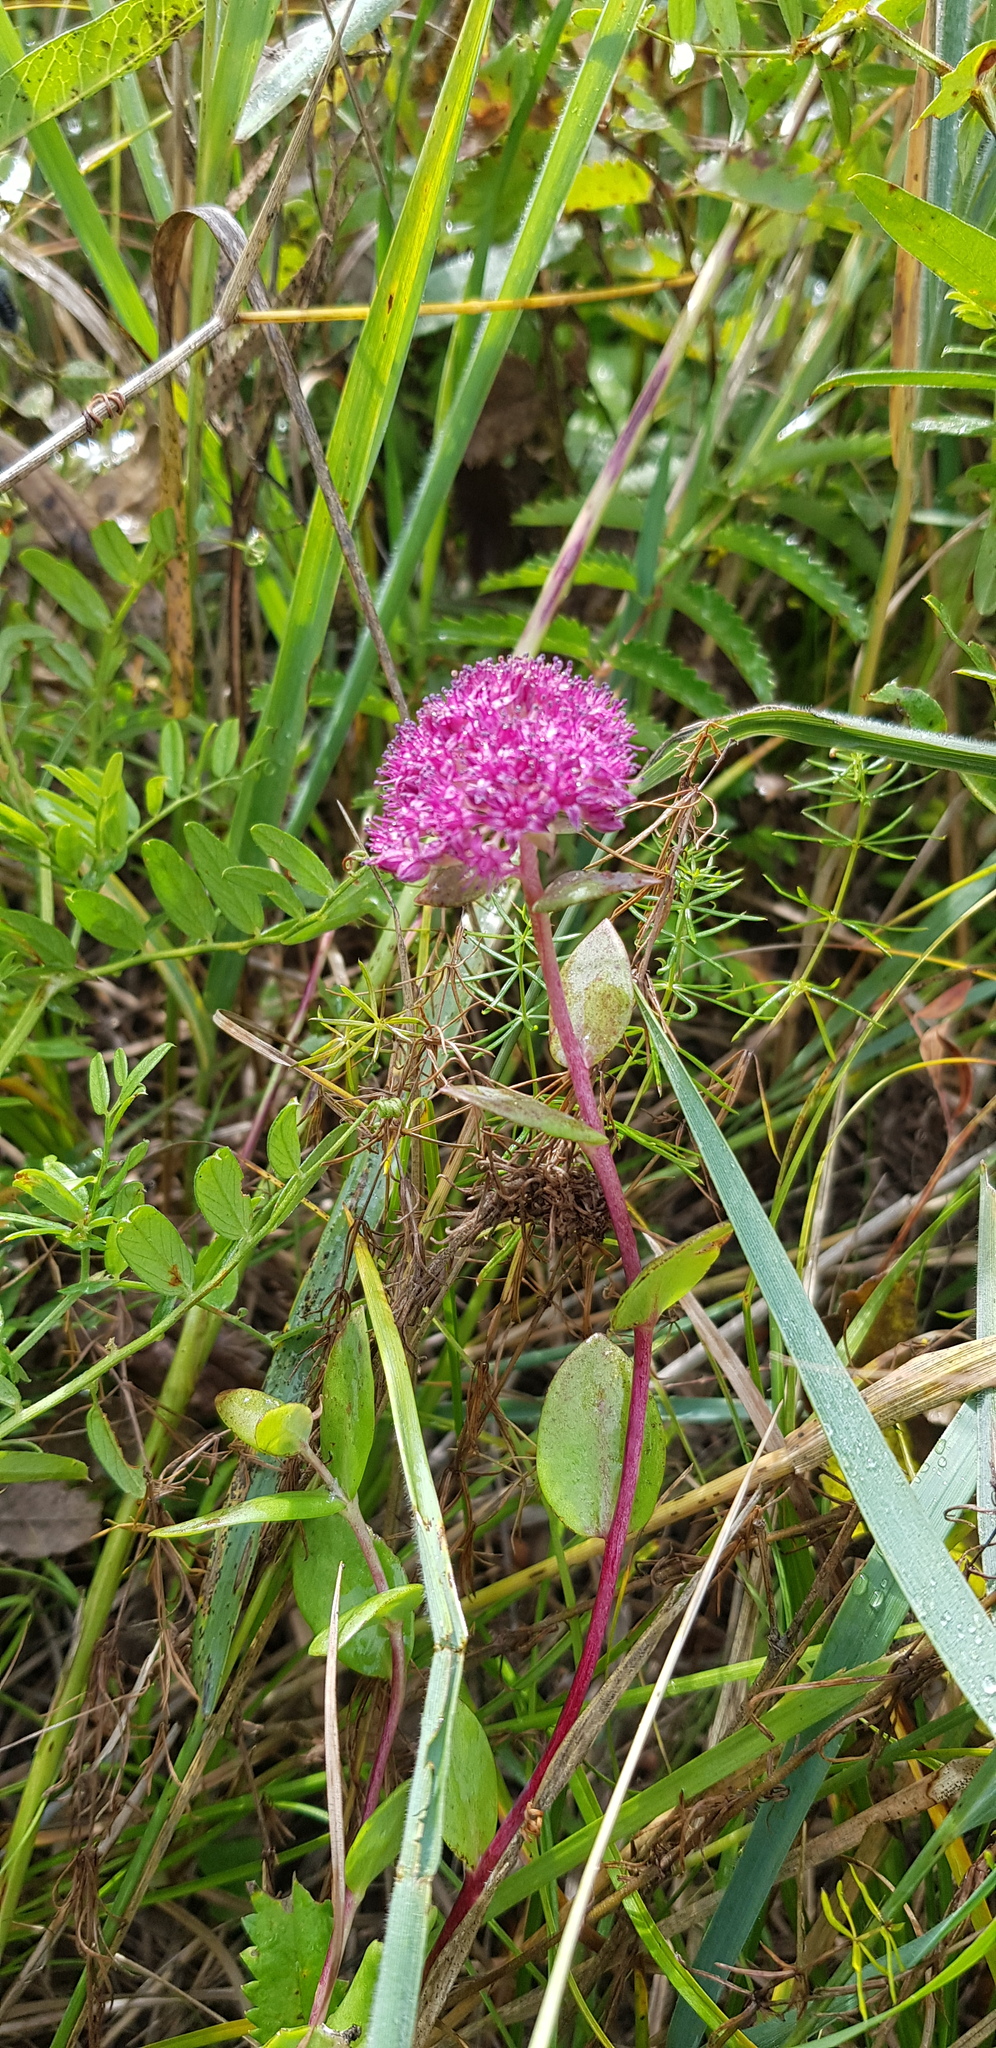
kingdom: Plantae
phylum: Tracheophyta
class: Magnoliopsida
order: Saxifragales
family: Crassulaceae
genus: Hylotelephium
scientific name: Hylotelephium telephium
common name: Live-forever
